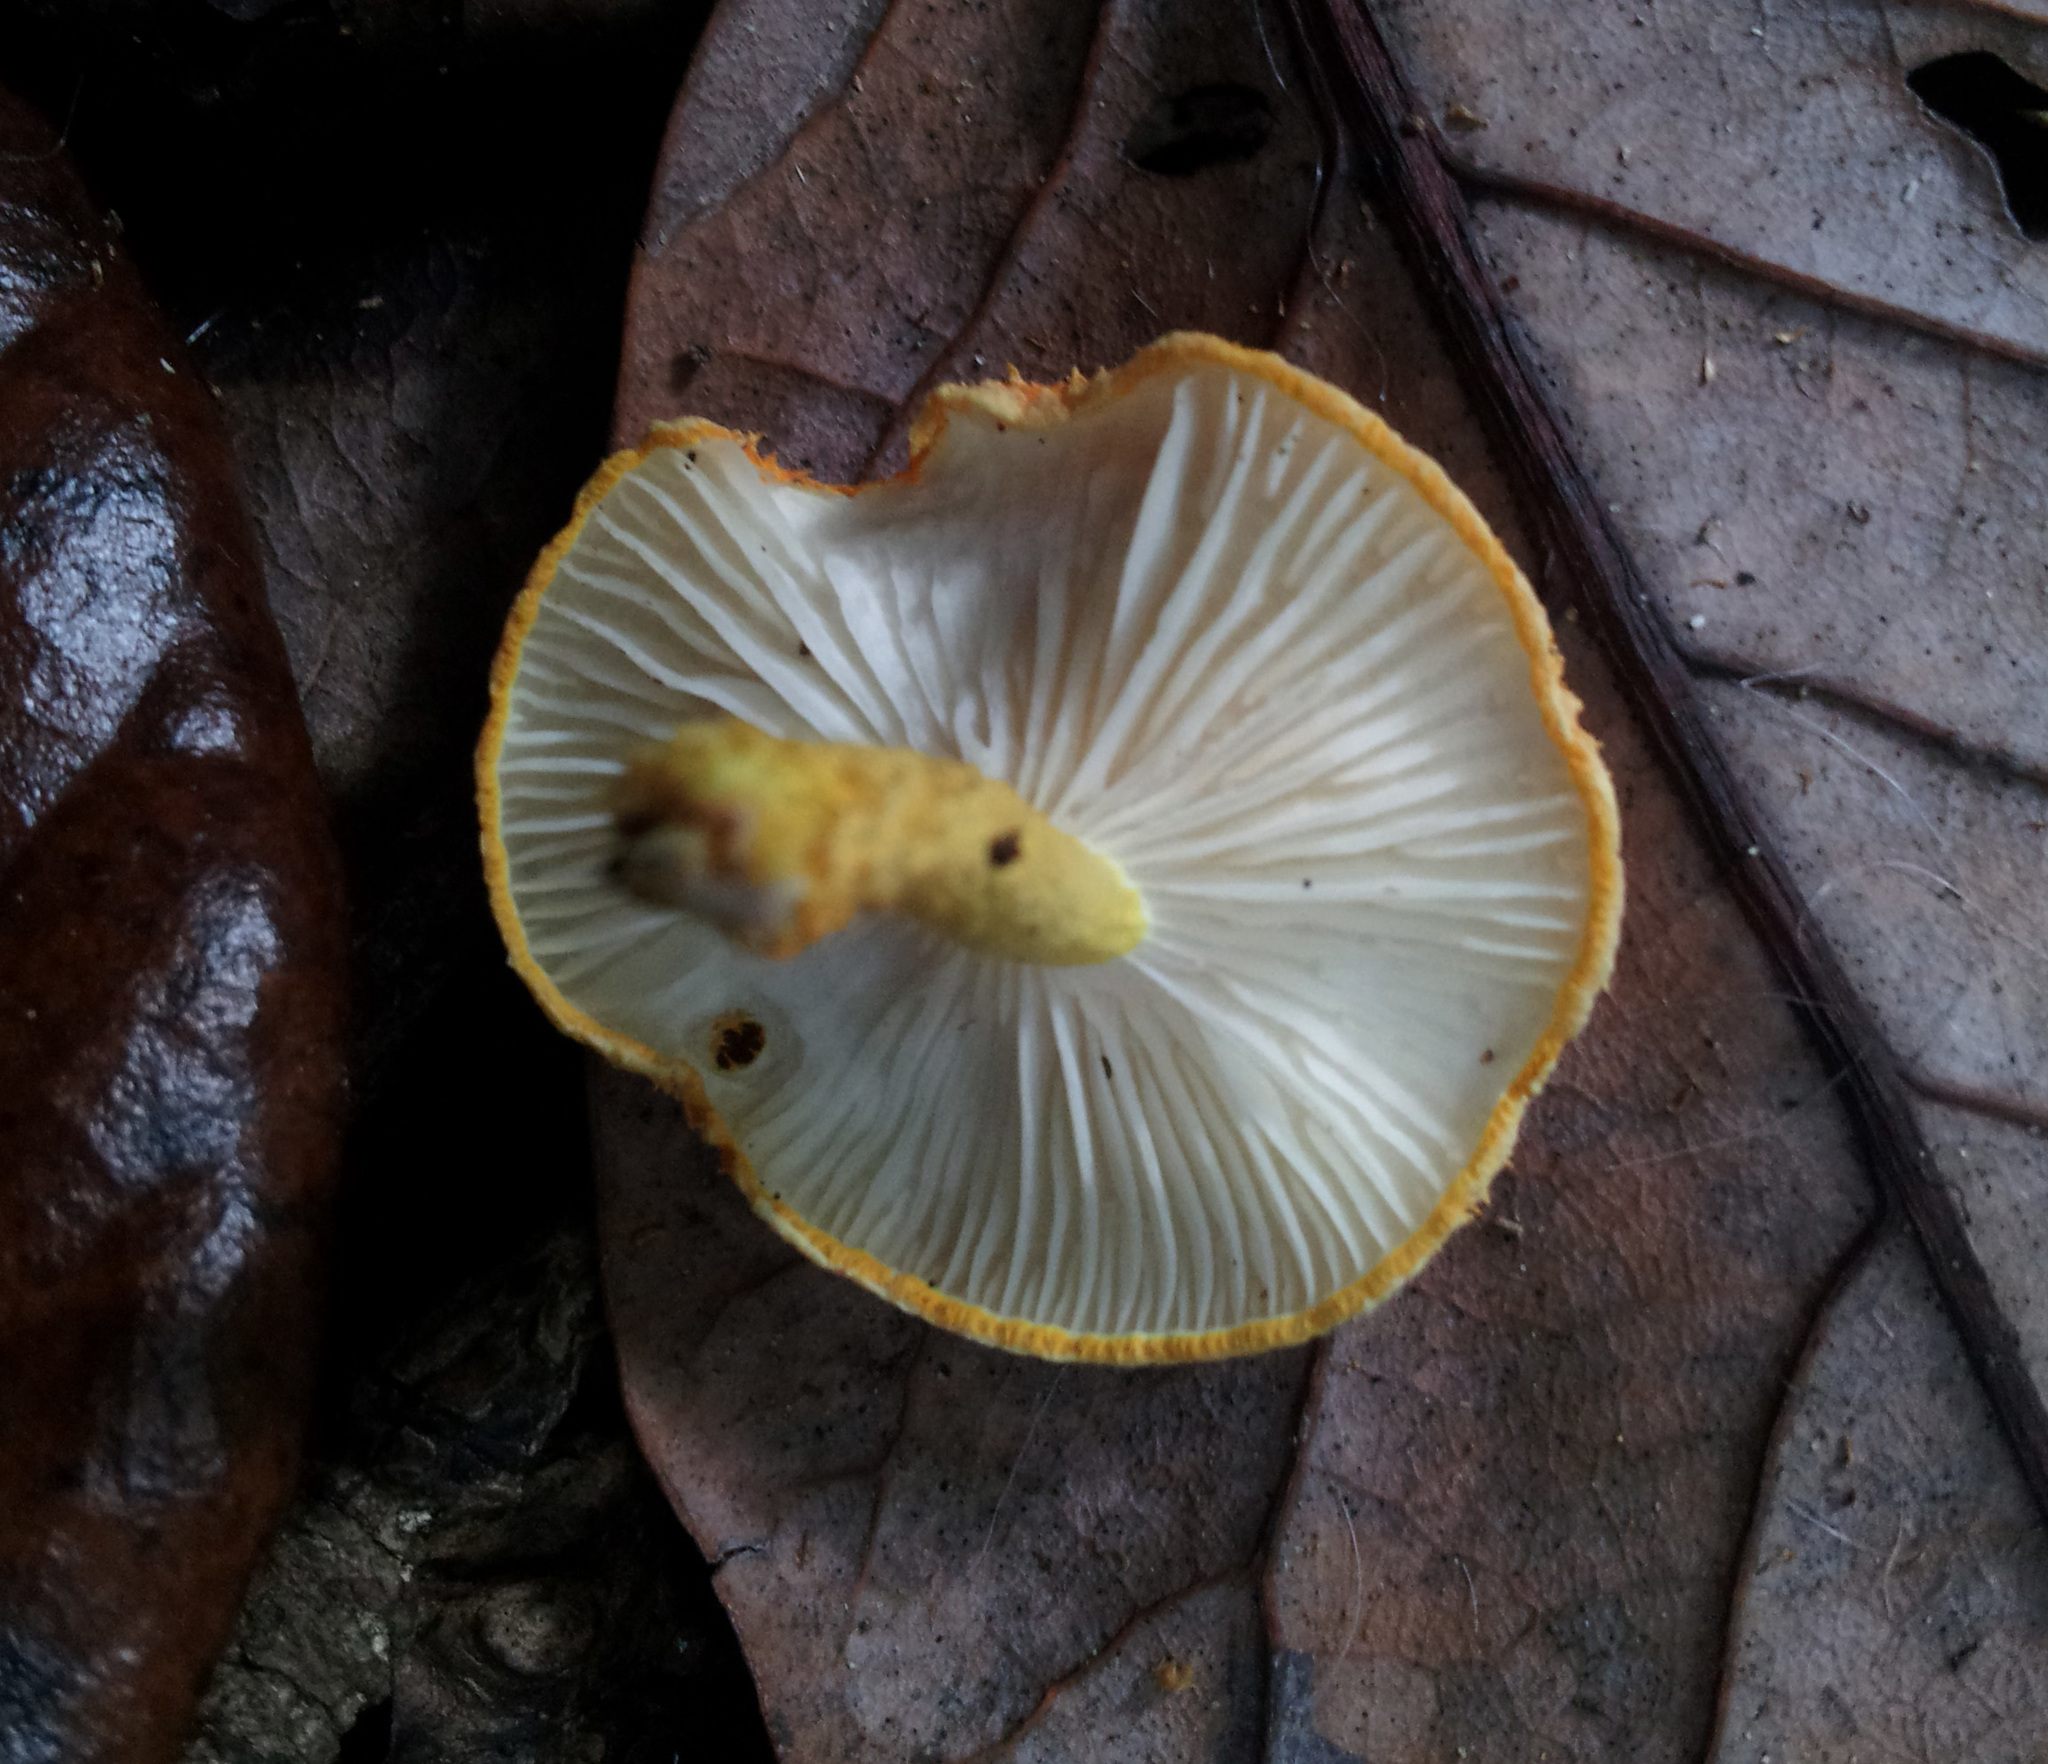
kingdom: Fungi
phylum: Basidiomycota
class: Agaricomycetes
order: Agaricales
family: Physalacriaceae
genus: Cyptotrama
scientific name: Cyptotrama asprata
